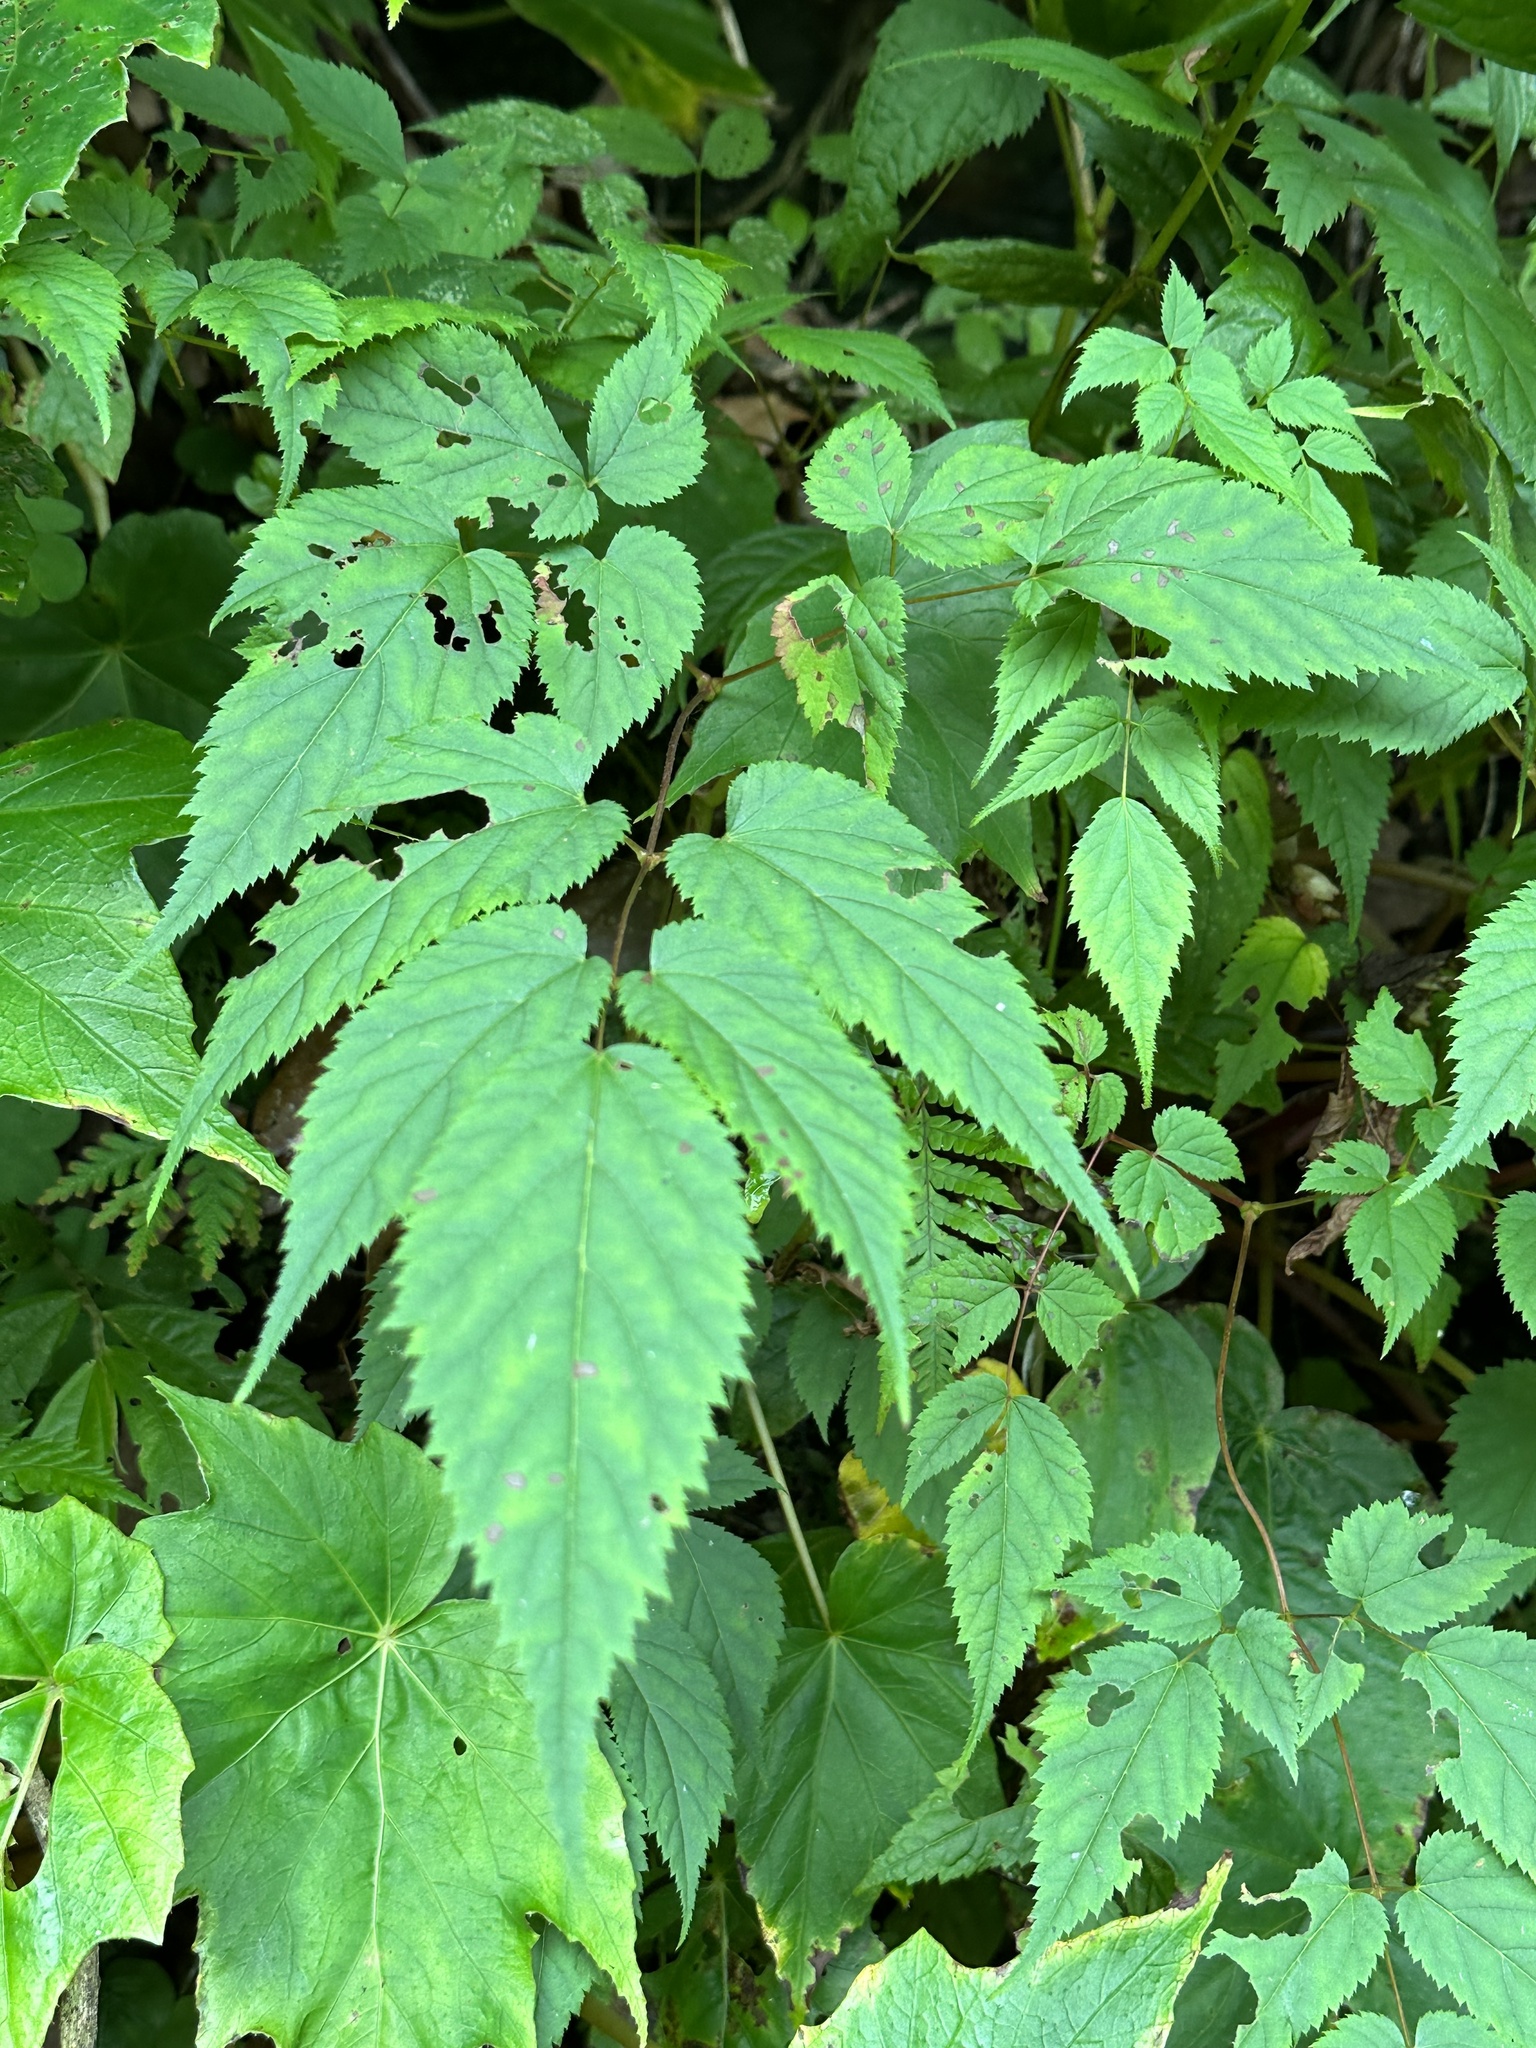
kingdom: Plantae
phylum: Tracheophyta
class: Magnoliopsida
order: Saxifragales
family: Saxifragaceae
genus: Astilbe
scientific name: Astilbe longicarpa
